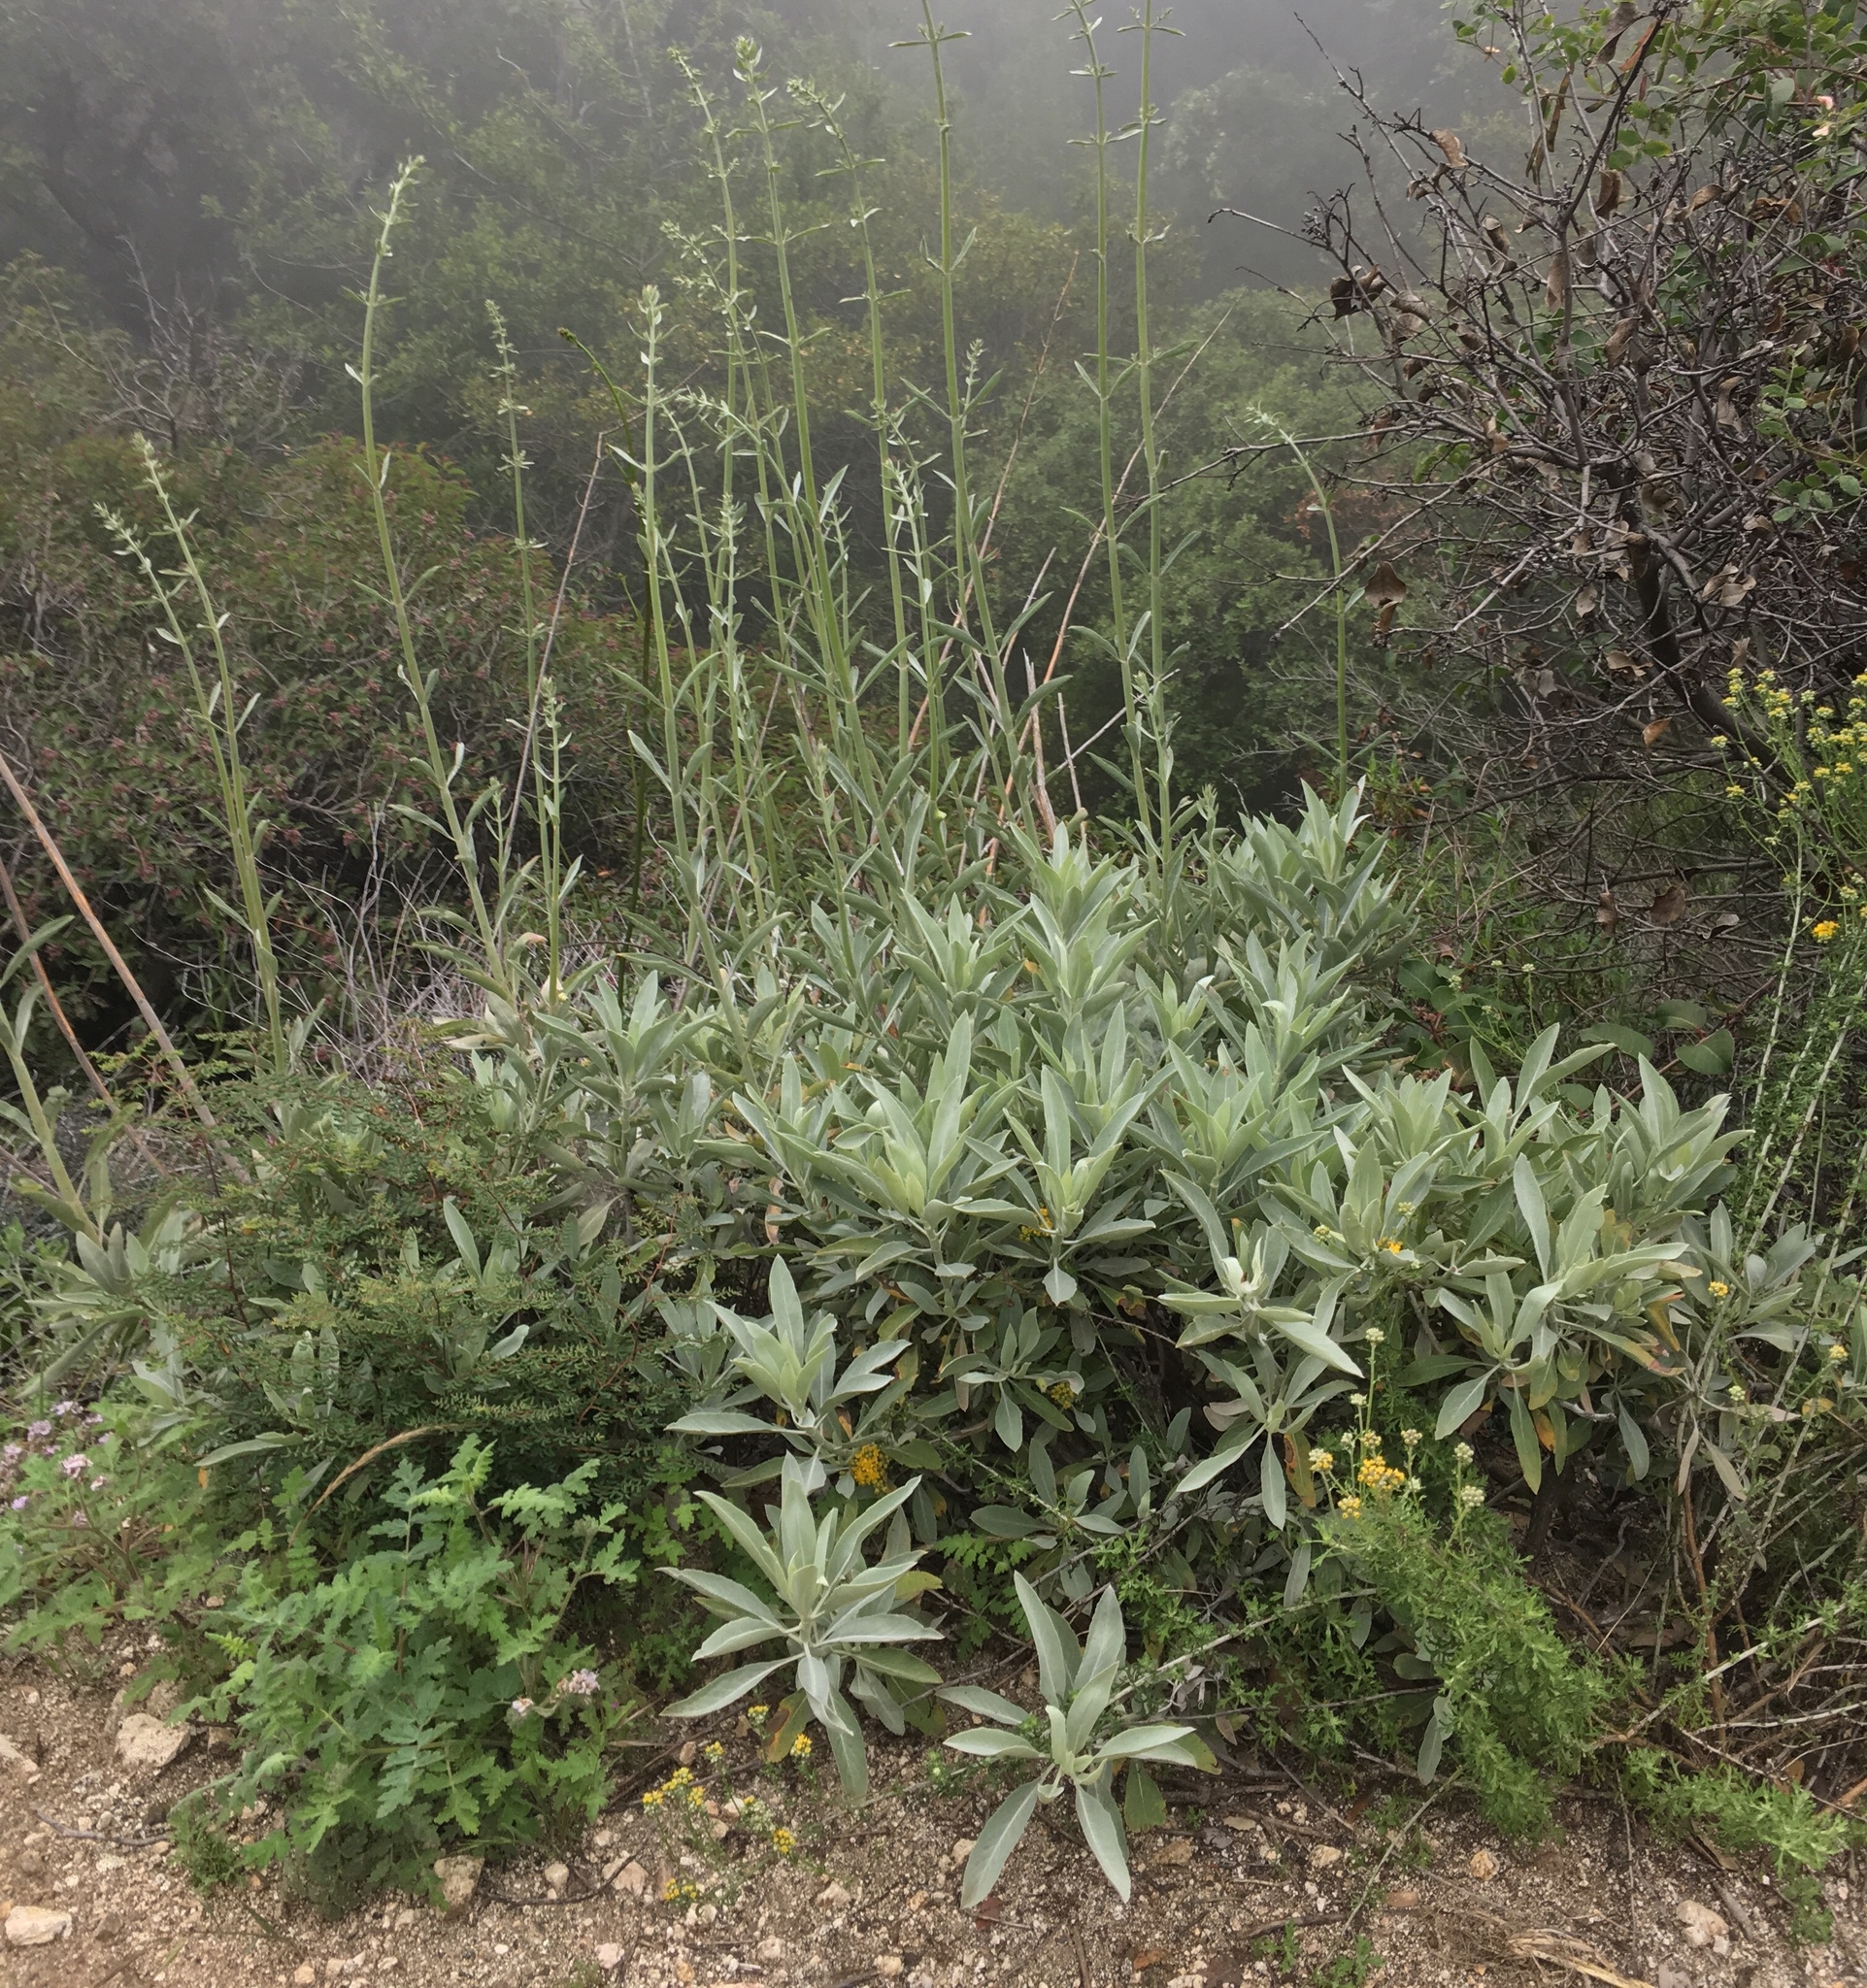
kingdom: Plantae
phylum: Tracheophyta
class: Magnoliopsida
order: Lamiales
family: Lamiaceae
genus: Salvia
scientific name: Salvia apiana
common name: White sage
